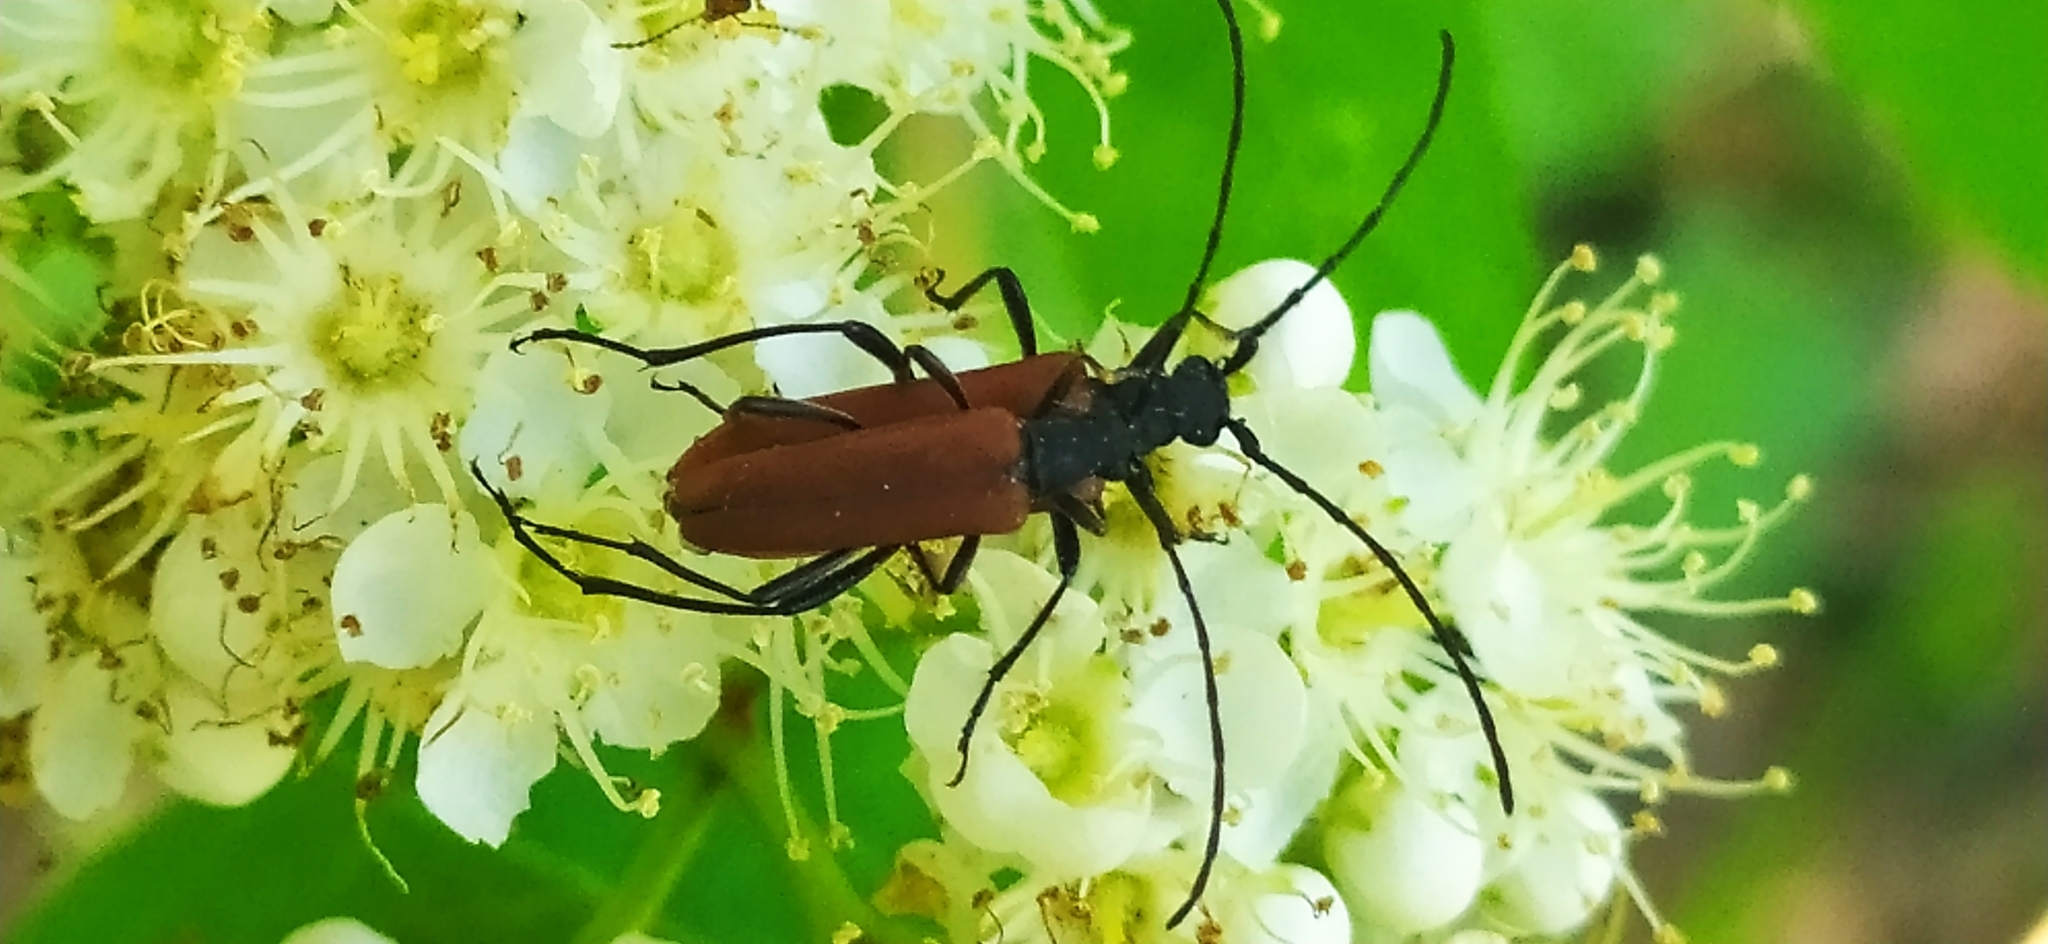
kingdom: Animalia
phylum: Arthropoda
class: Insecta
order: Coleoptera
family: Cerambycidae
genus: Nivellia
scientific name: Nivellia sanguinosa
